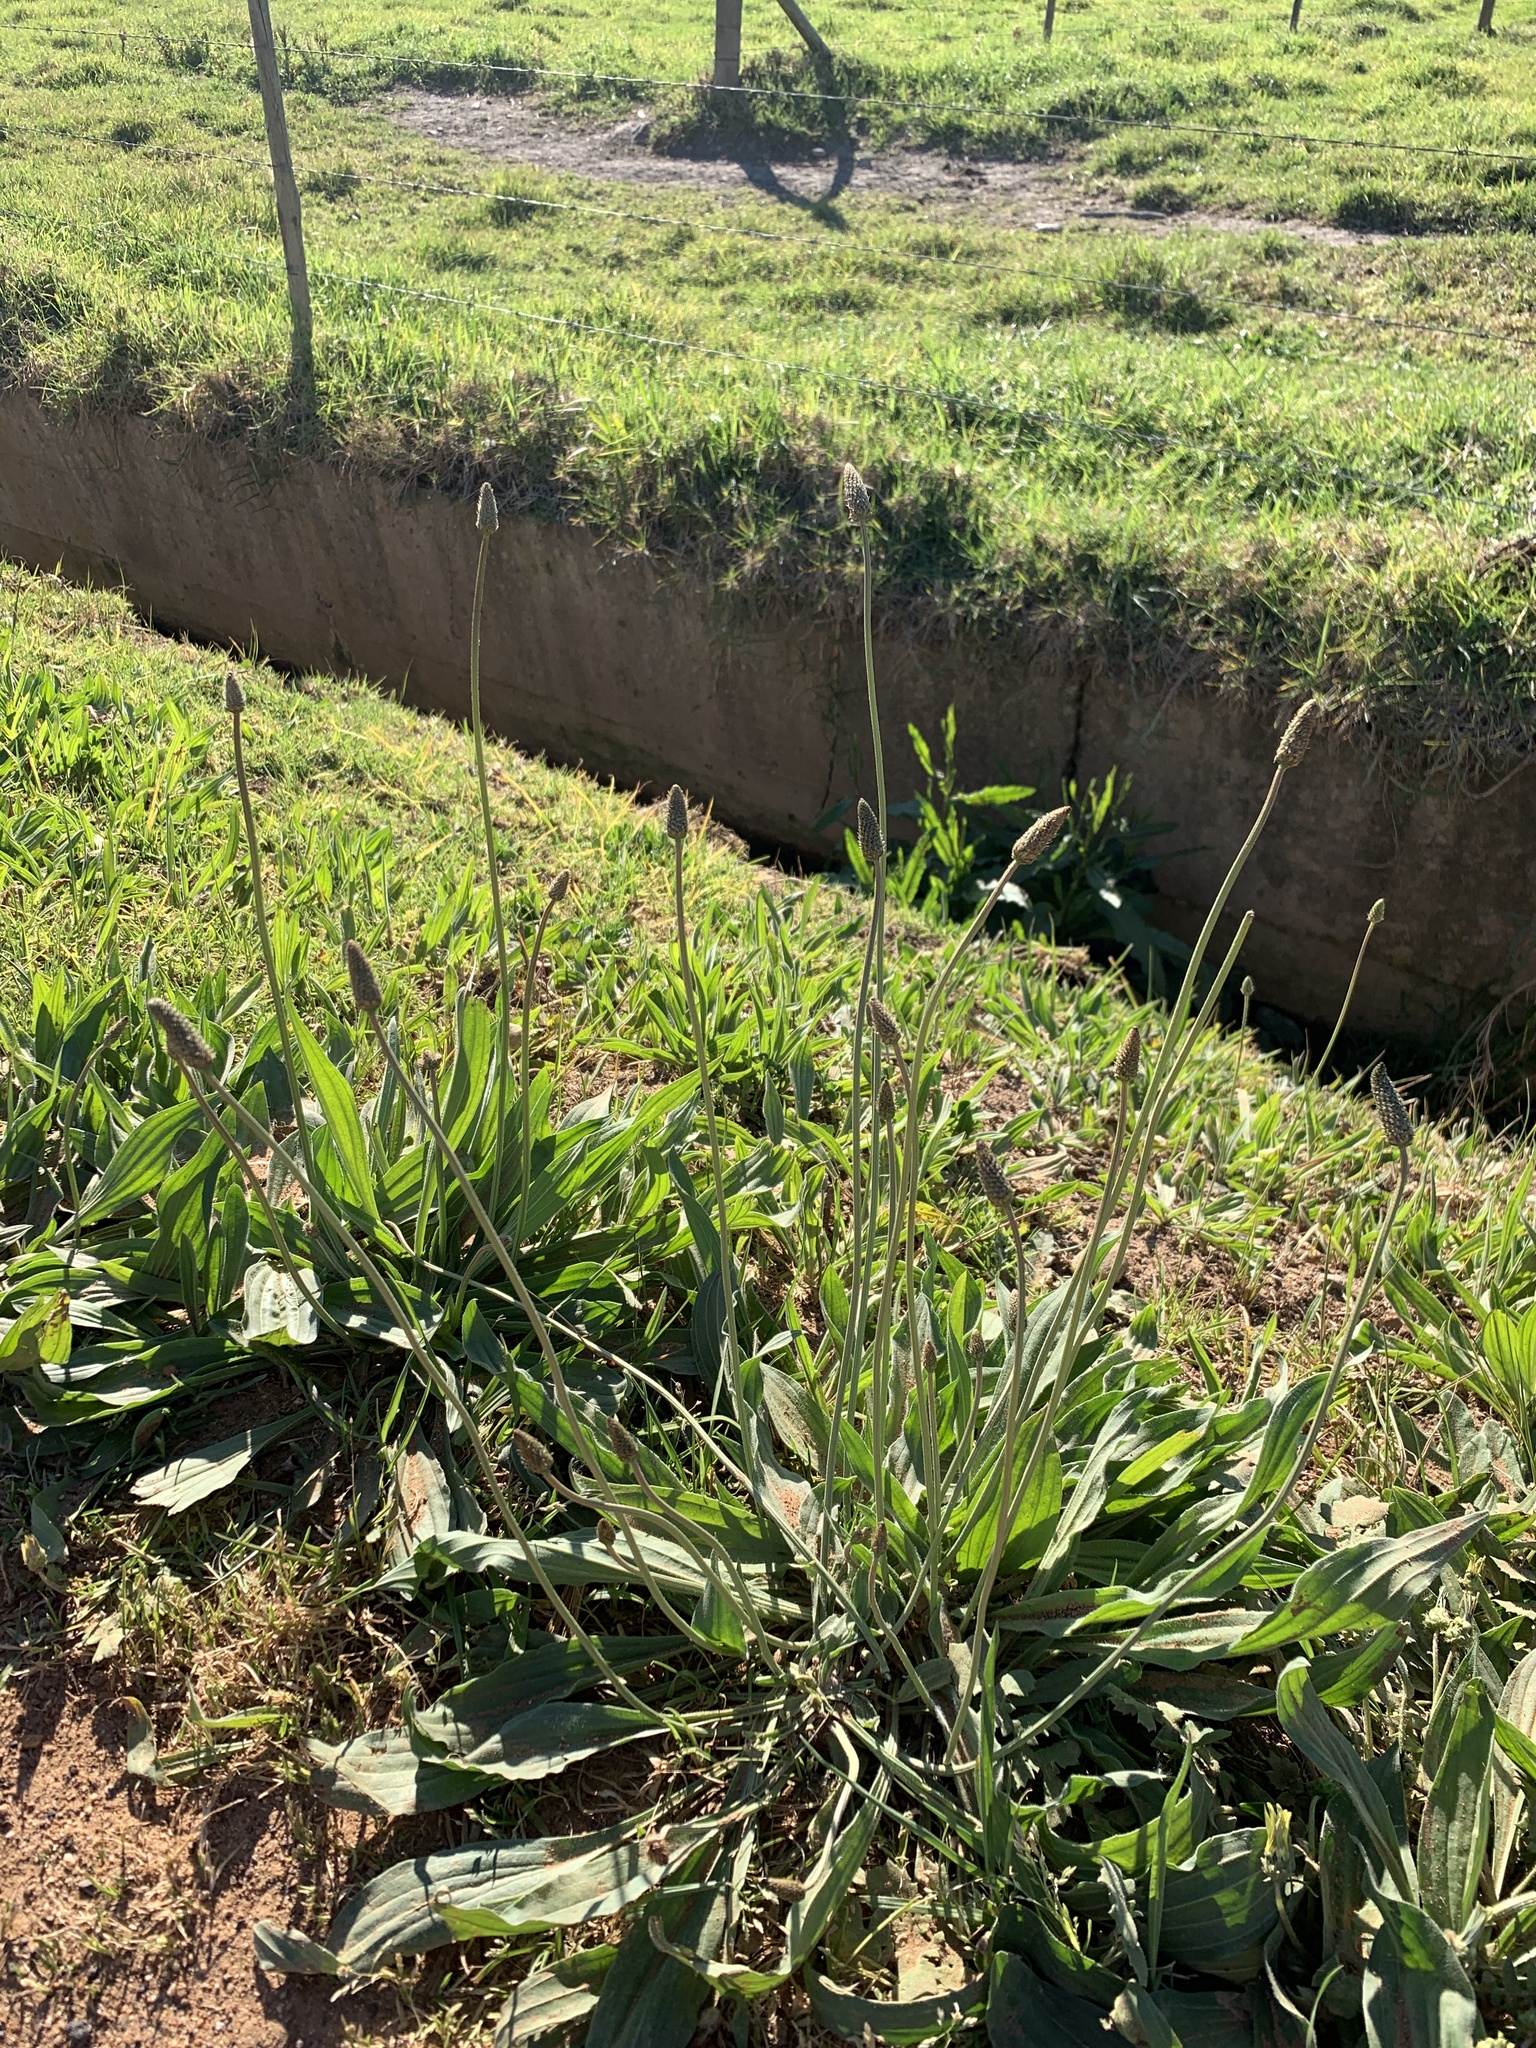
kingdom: Plantae
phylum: Tracheophyta
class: Magnoliopsida
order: Lamiales
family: Plantaginaceae
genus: Plantago
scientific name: Plantago lanceolata
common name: Ribwort plantain
